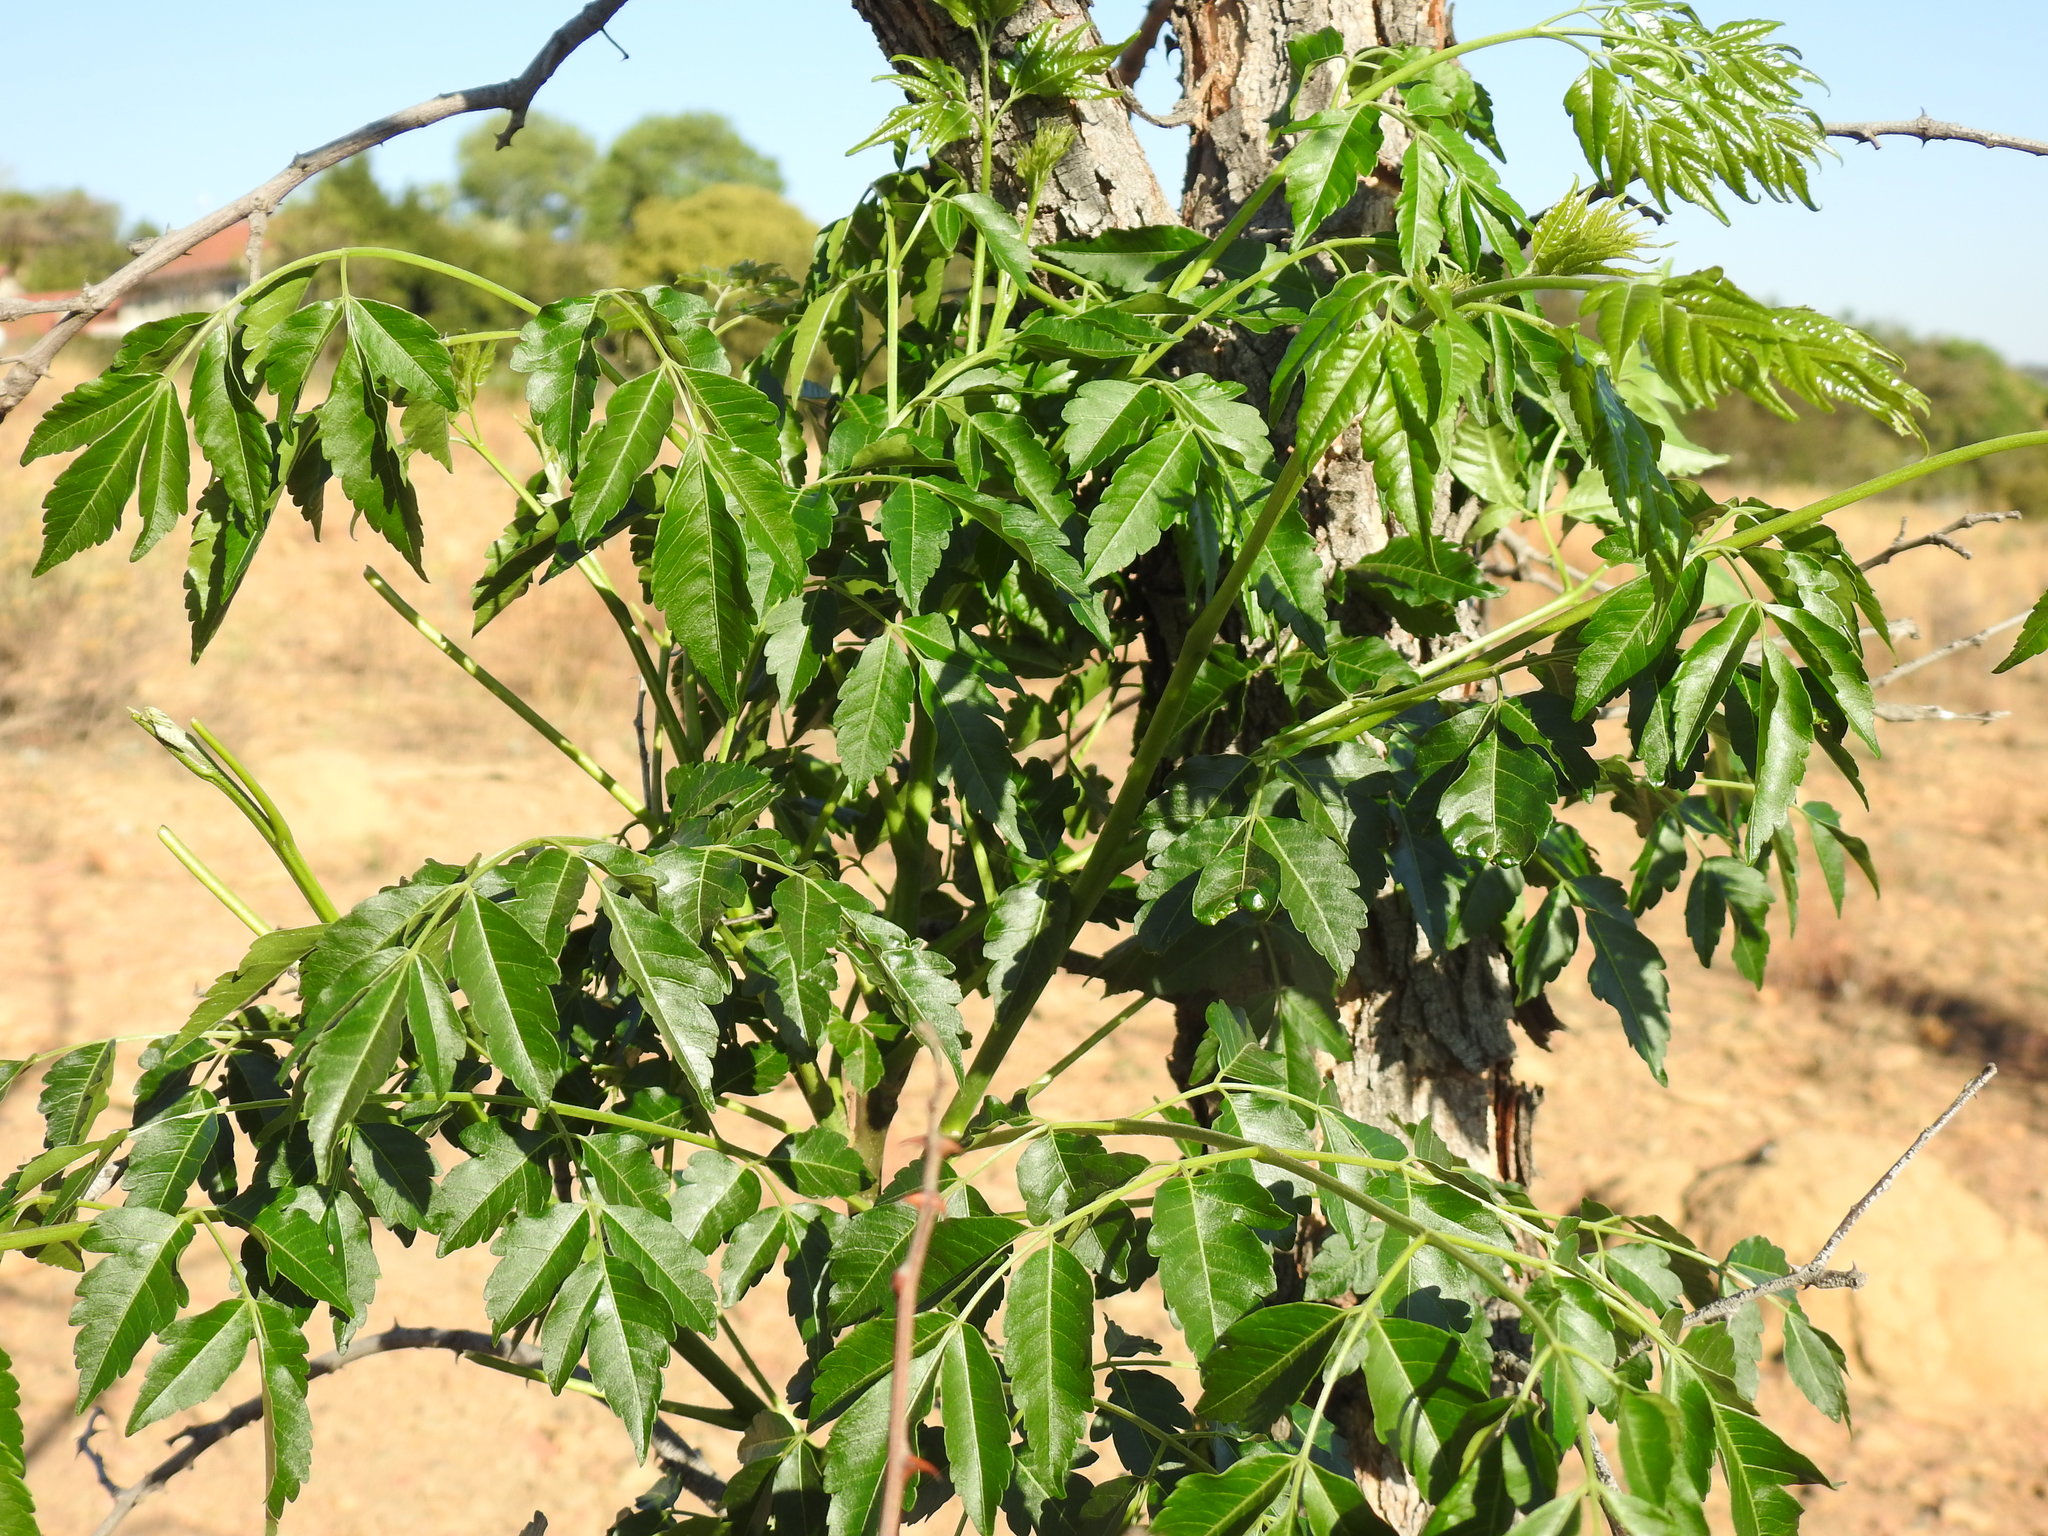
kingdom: Plantae
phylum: Tracheophyta
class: Magnoliopsida
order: Sapindales
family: Meliaceae
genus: Melia
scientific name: Melia azedarach
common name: Chinaberrytree
